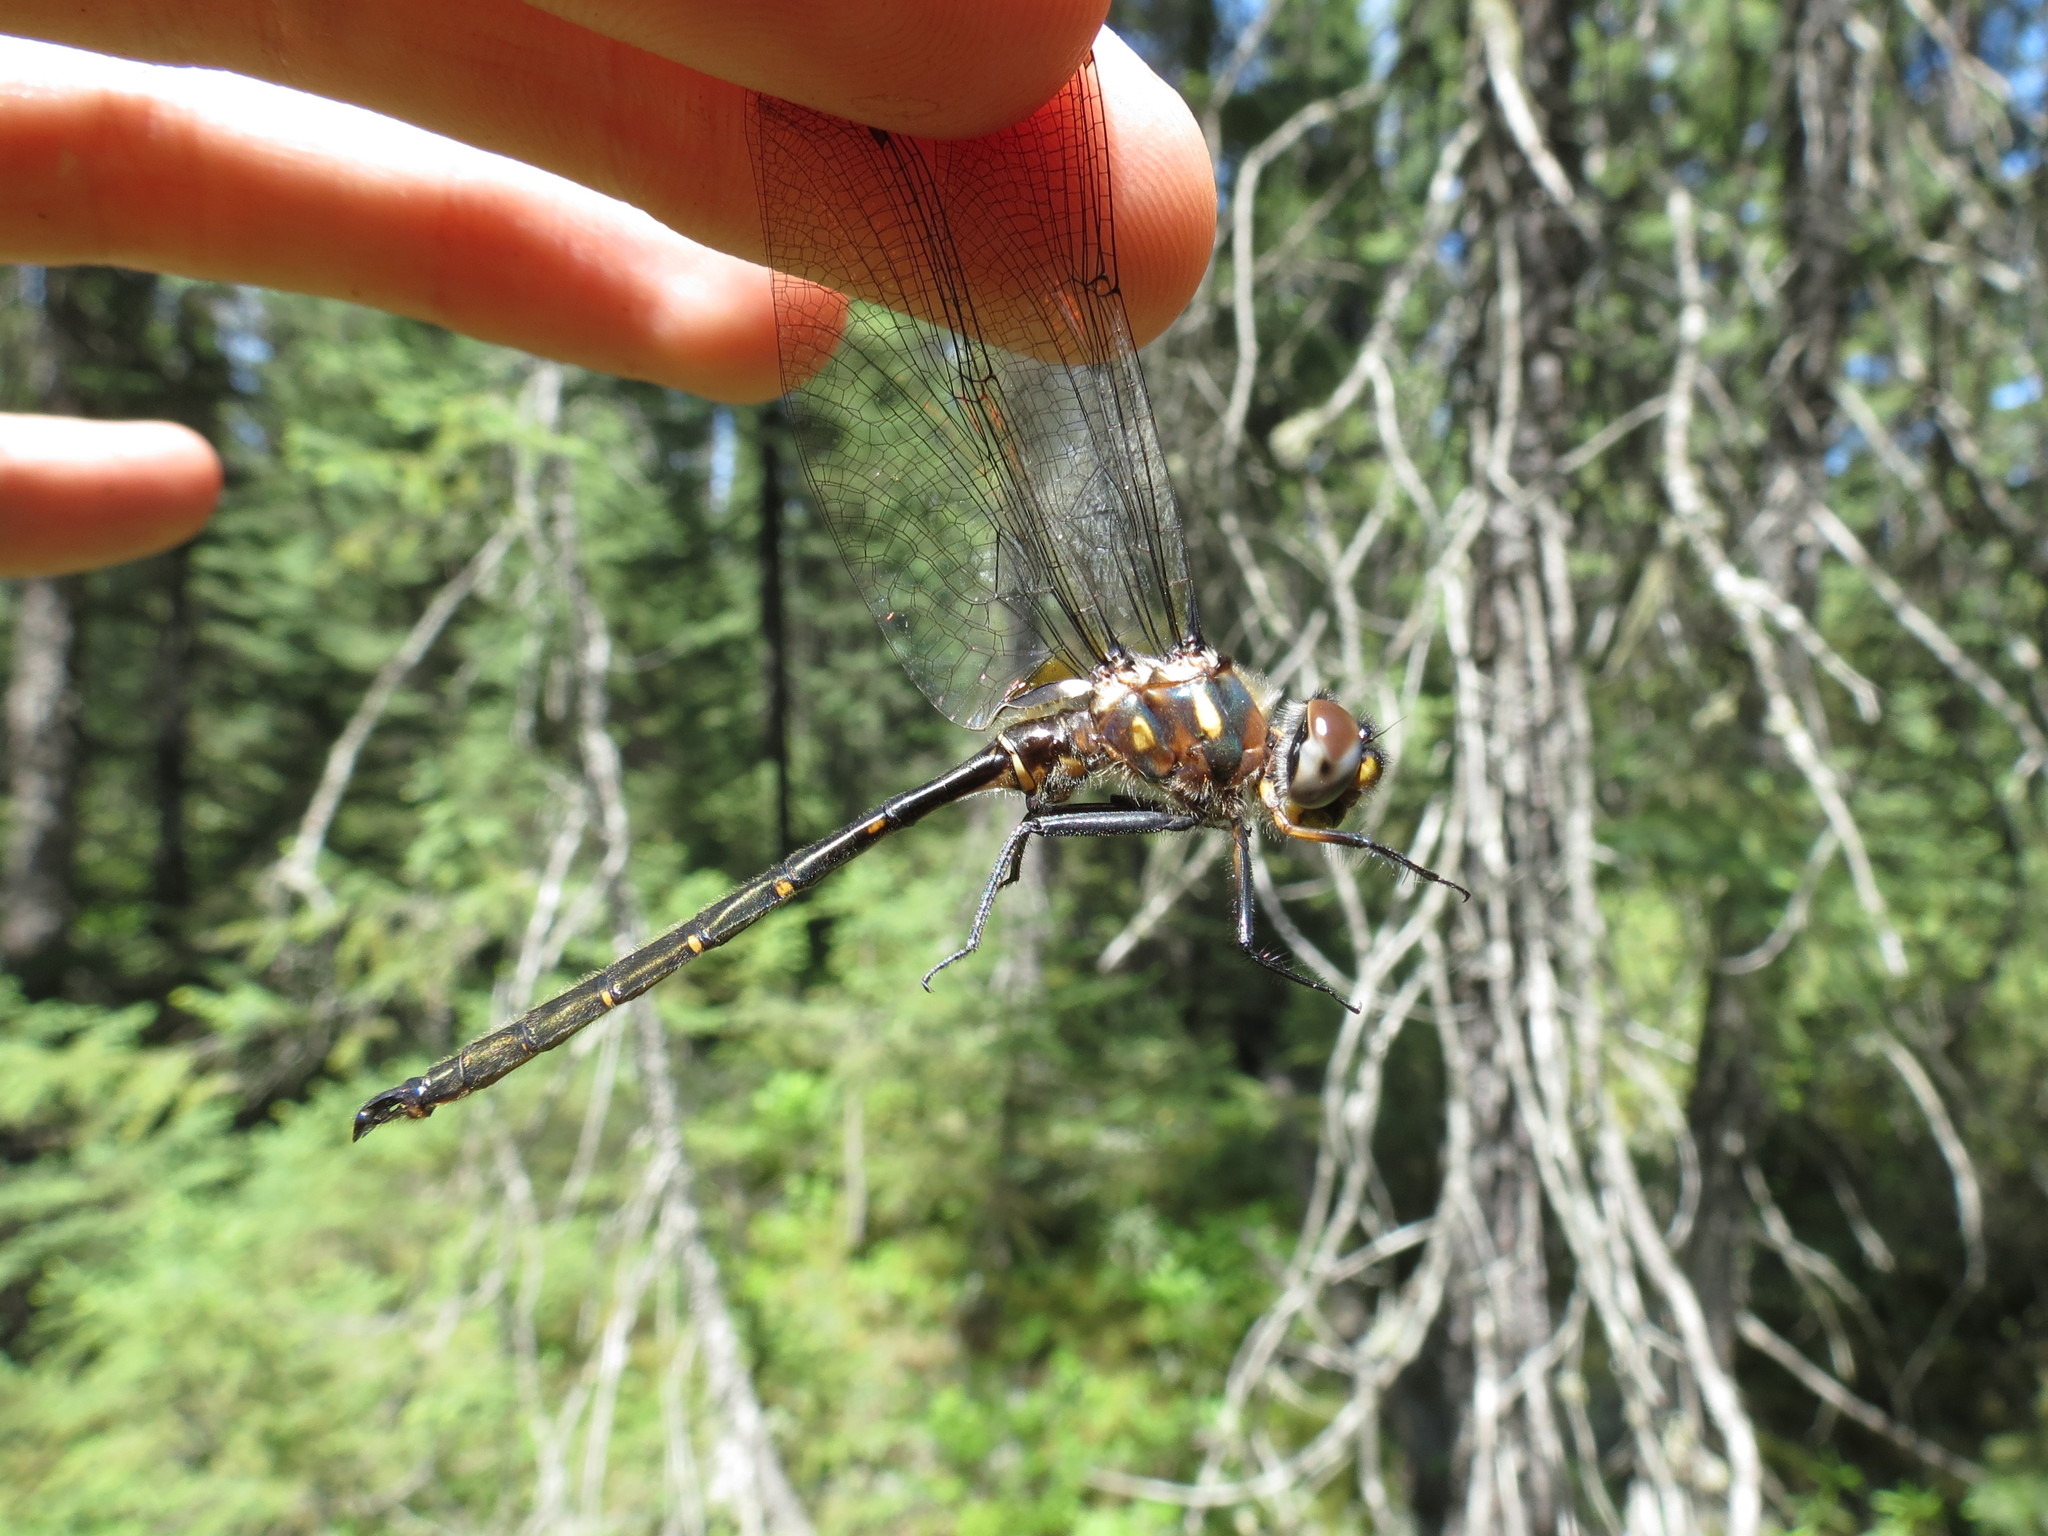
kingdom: Animalia
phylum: Arthropoda
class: Insecta
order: Odonata
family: Corduliidae
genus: Somatochlora
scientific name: Somatochlora forcipata
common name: Forcipate emerald
